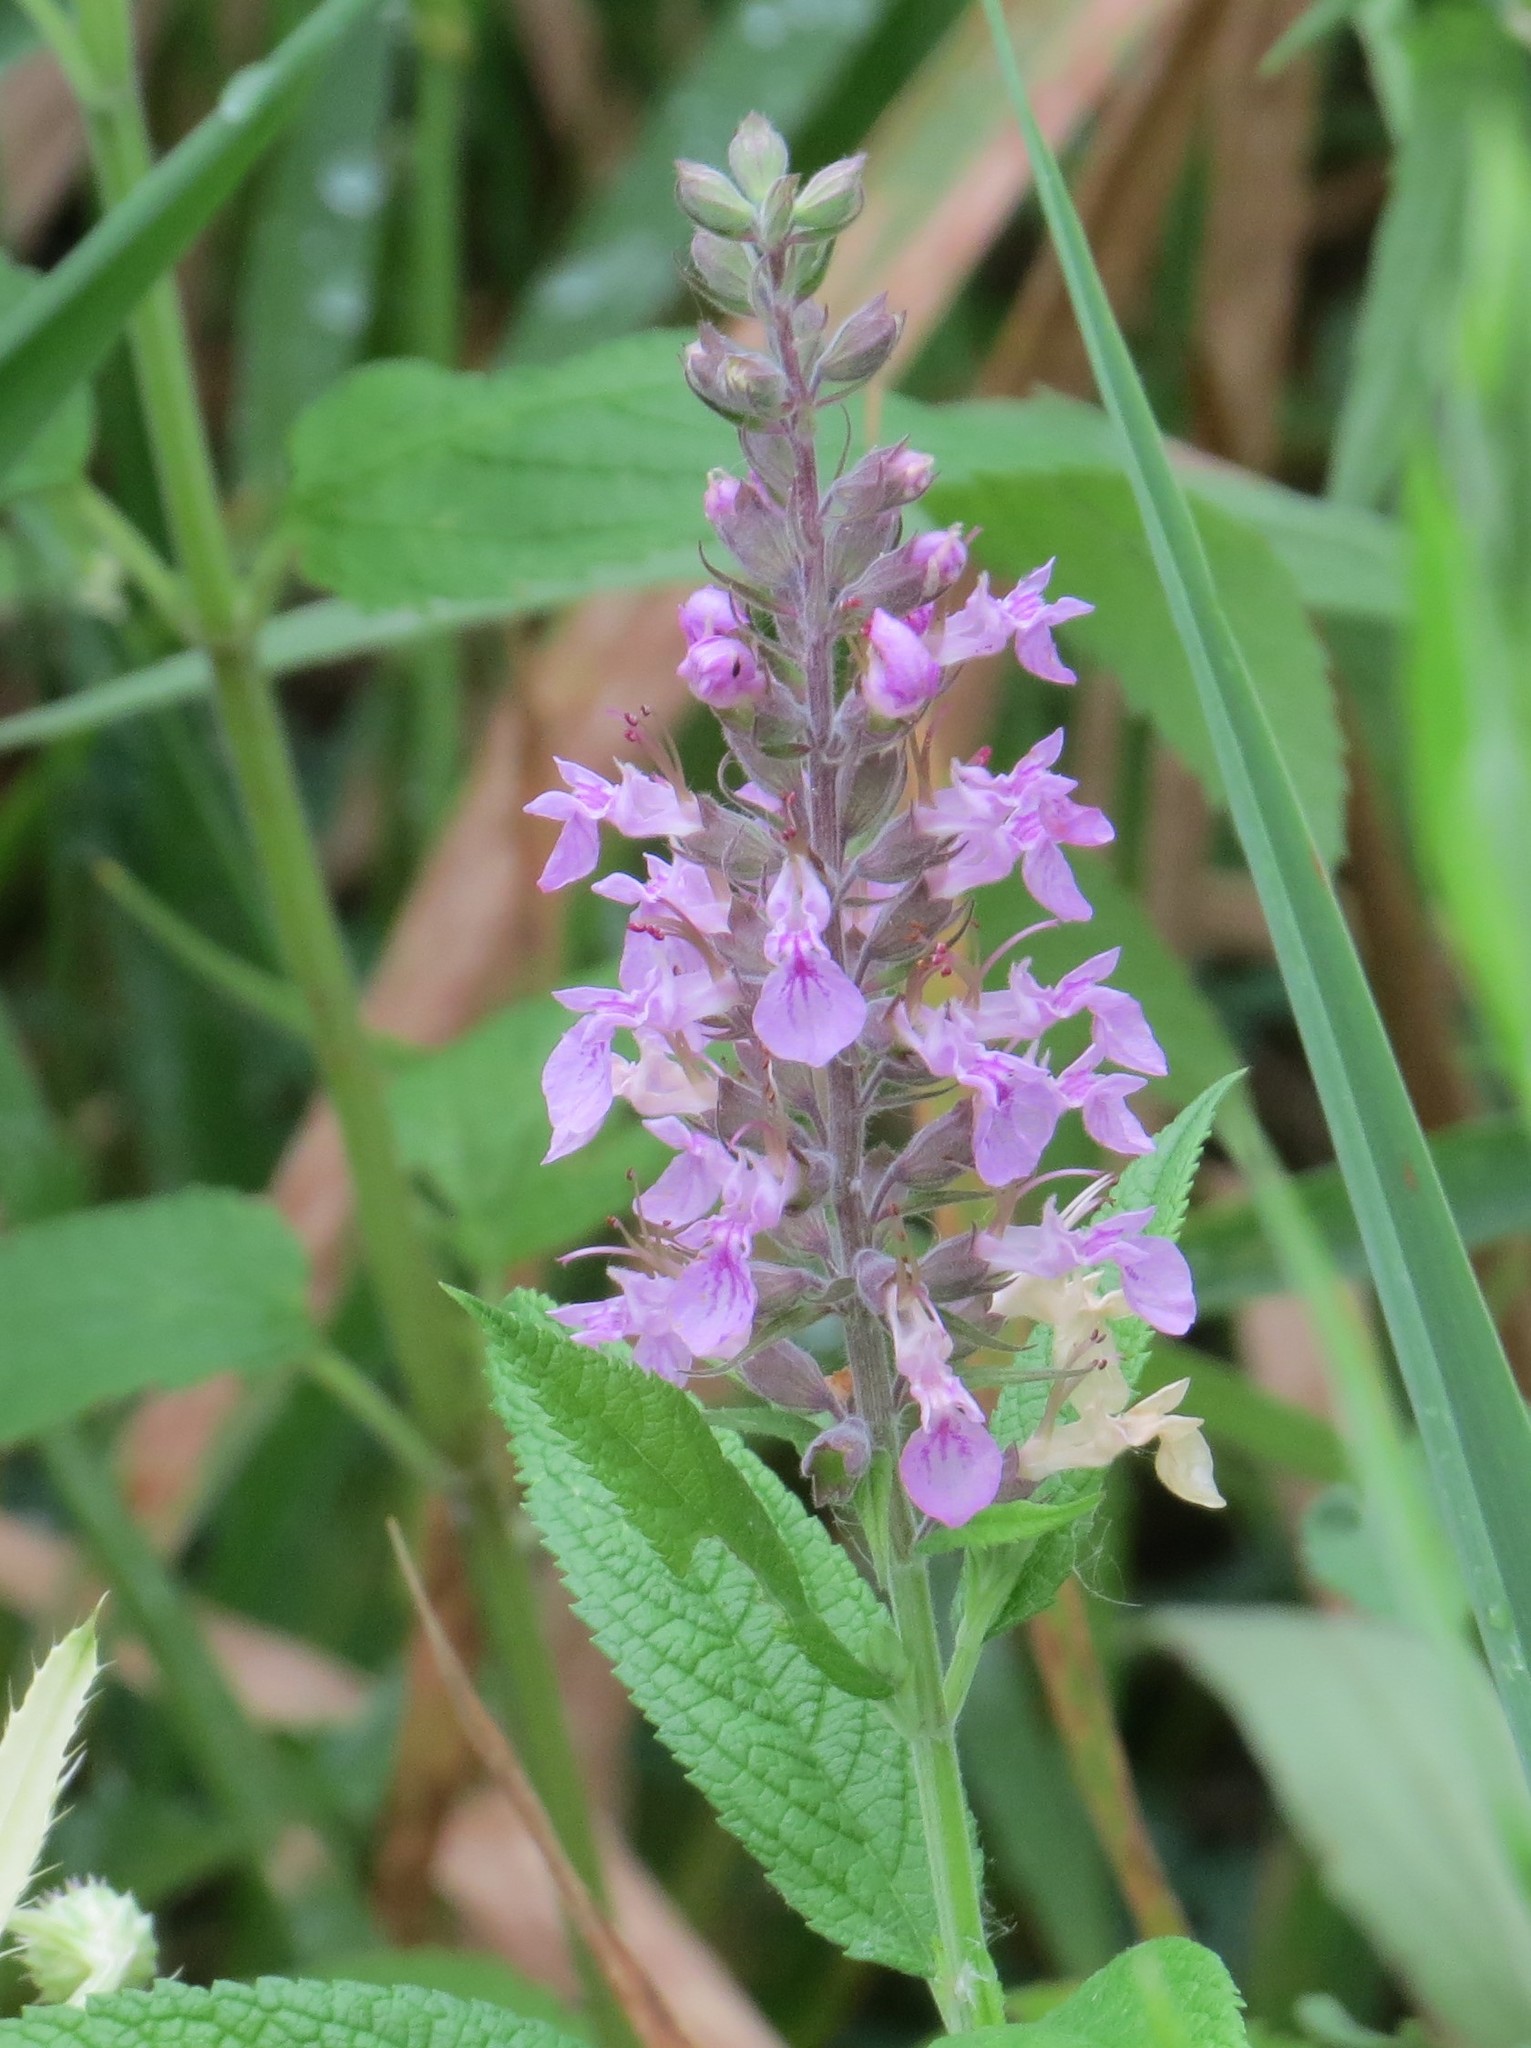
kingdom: Plantae
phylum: Tracheophyta
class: Magnoliopsida
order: Lamiales
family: Lamiaceae
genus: Teucrium
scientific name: Teucrium canadense
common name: American germander
